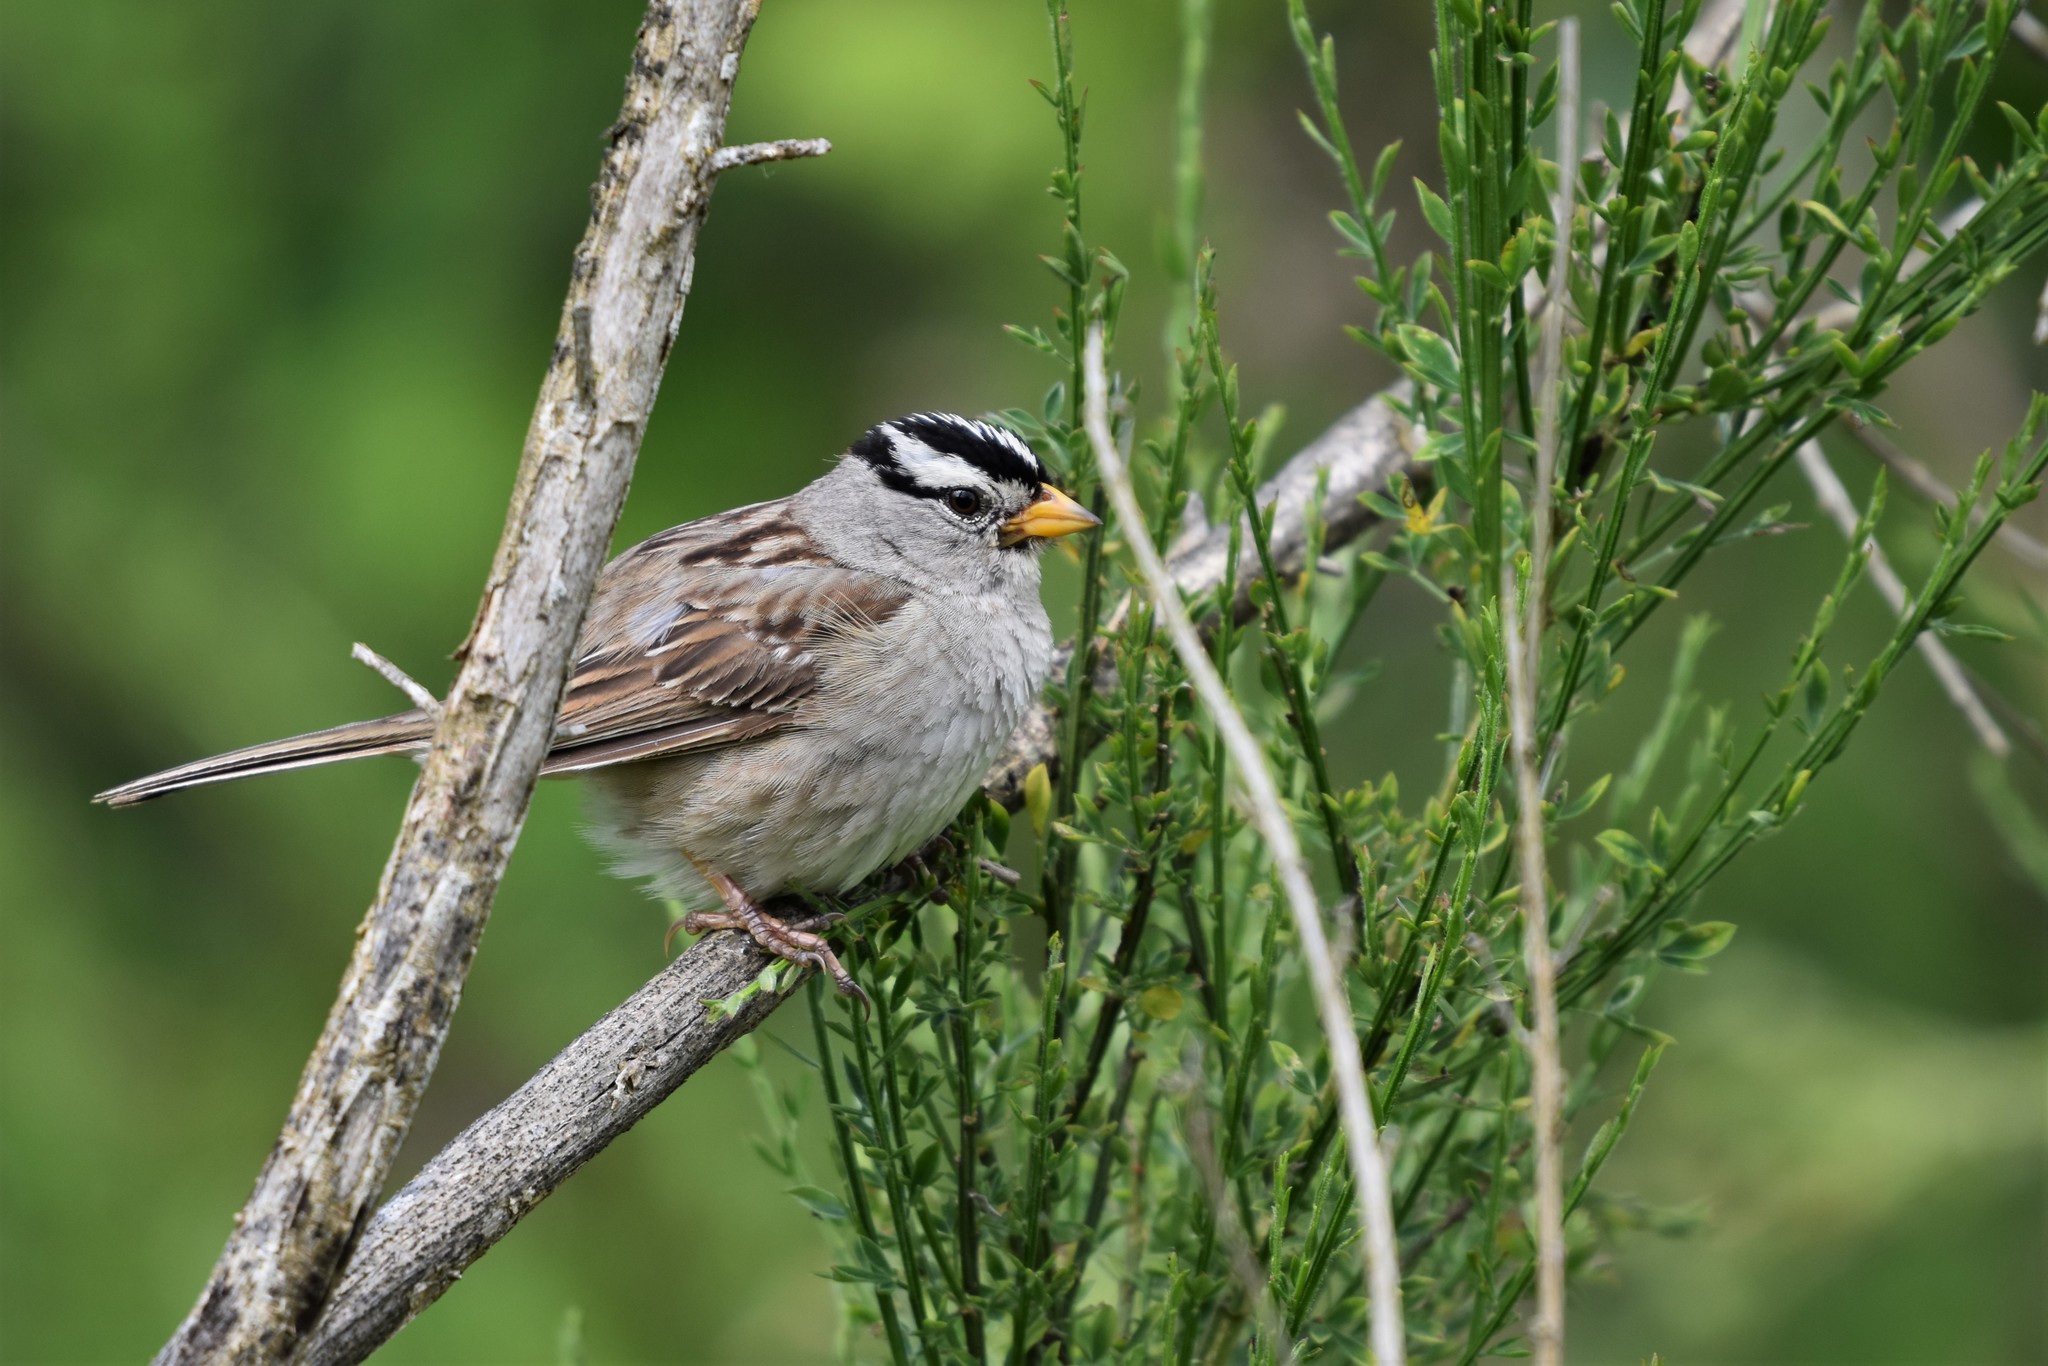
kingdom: Animalia
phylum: Chordata
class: Aves
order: Passeriformes
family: Passerellidae
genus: Zonotrichia
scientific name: Zonotrichia leucophrys
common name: White-crowned sparrow
